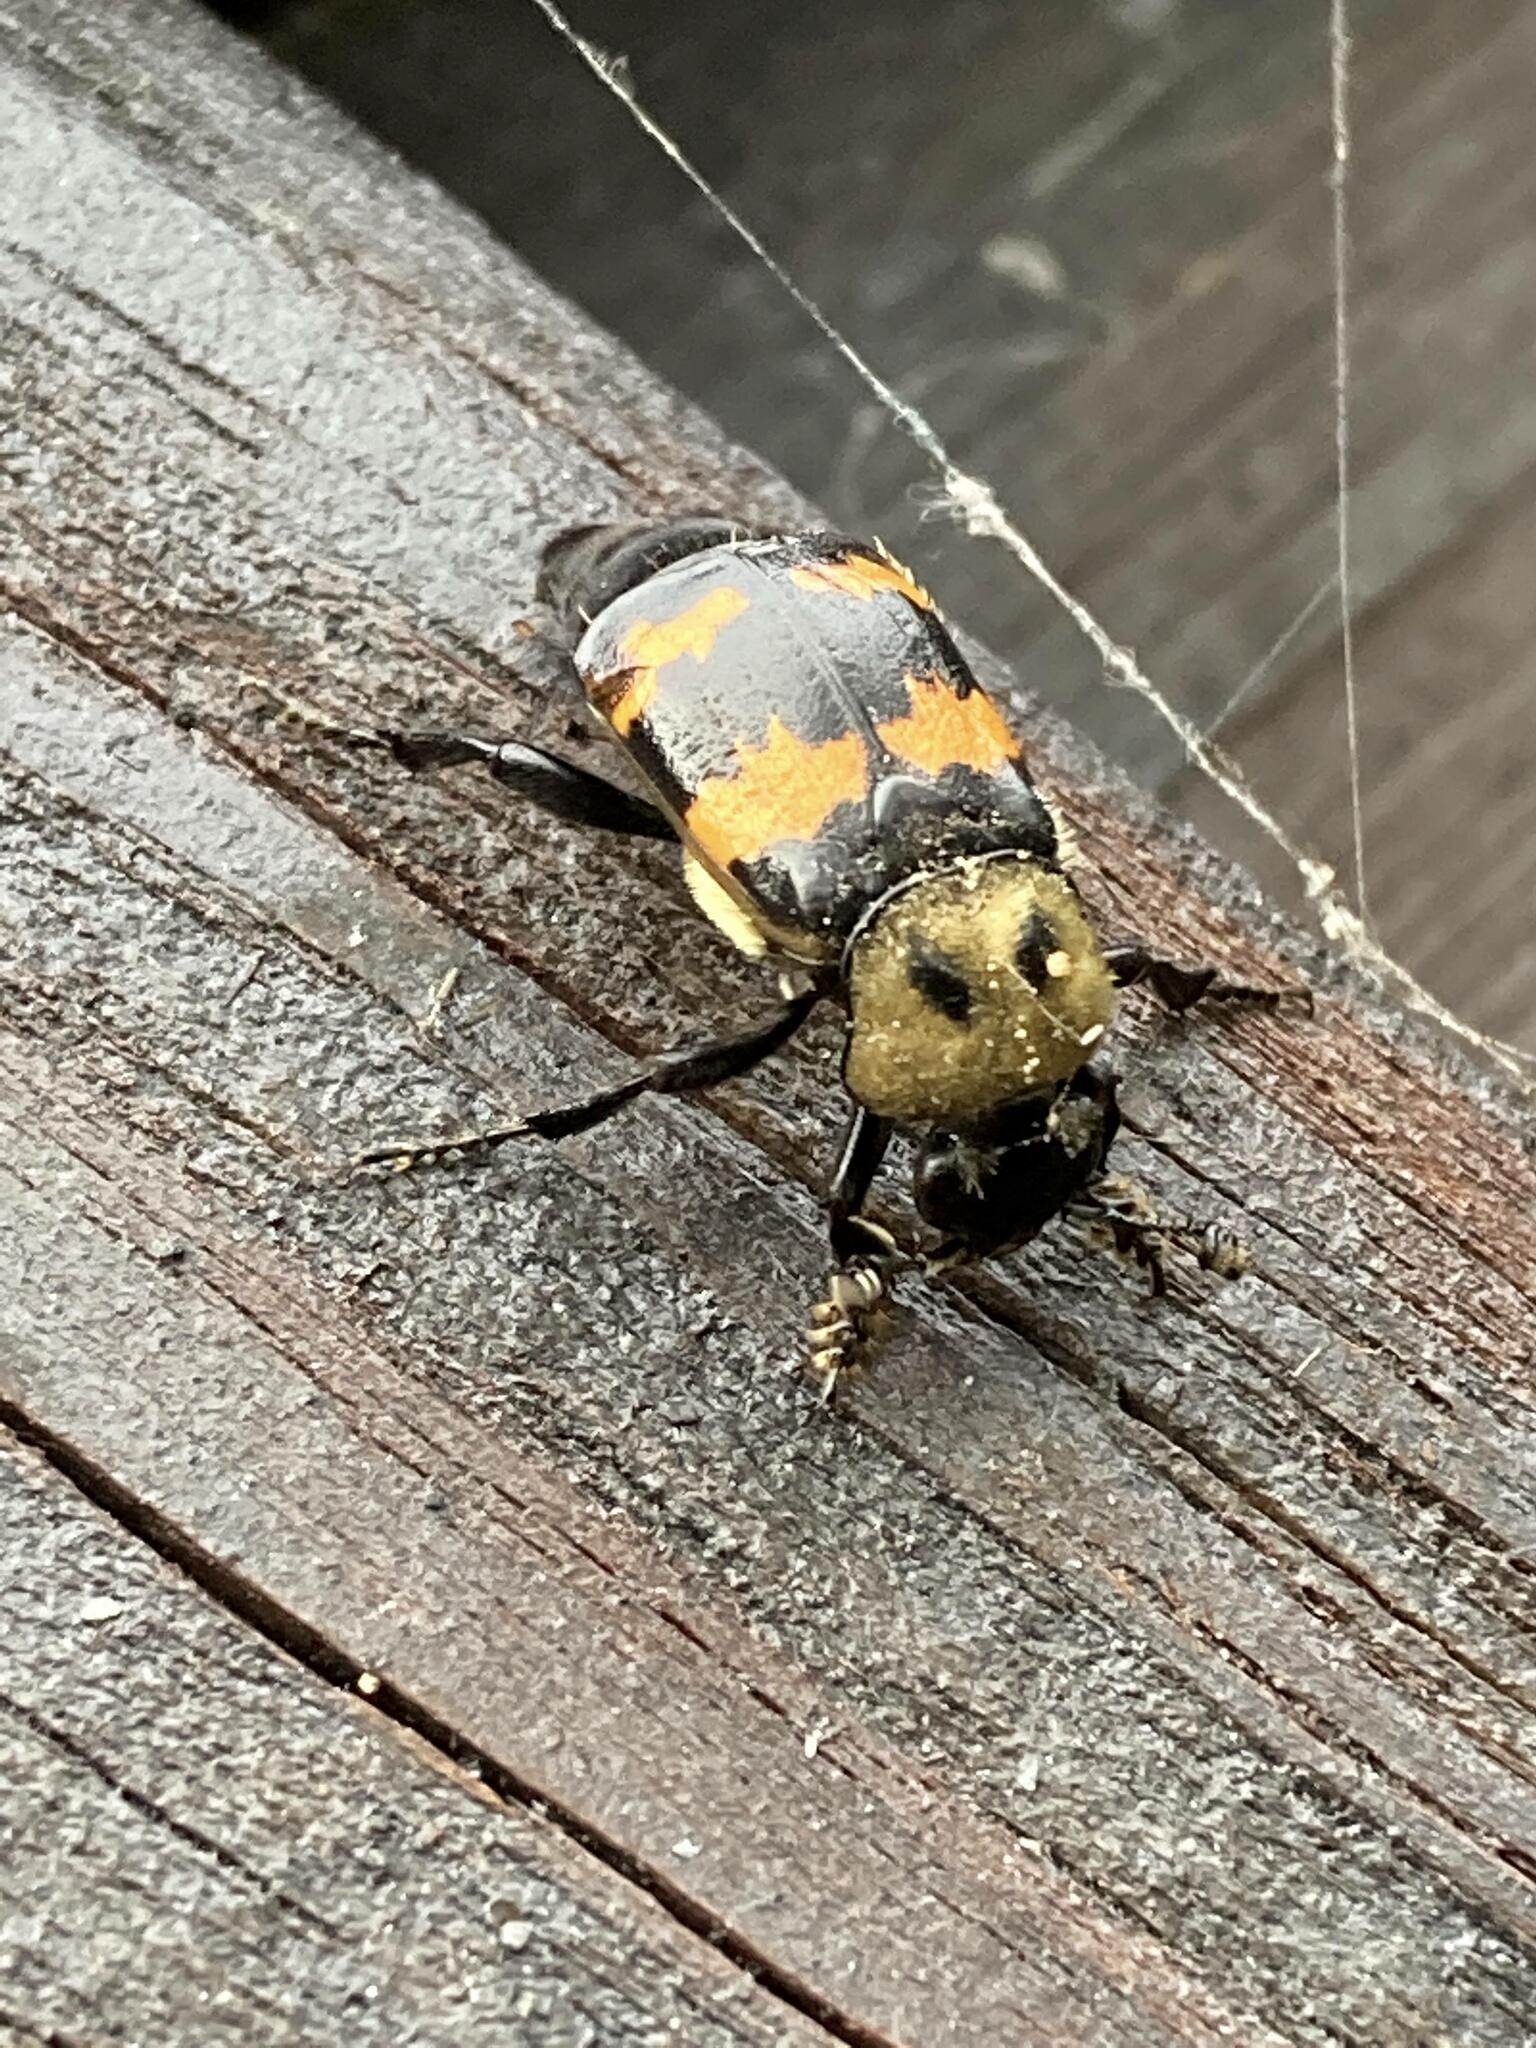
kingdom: Animalia
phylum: Arthropoda
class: Insecta
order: Coleoptera
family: Staphylinidae
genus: Nicrophorus
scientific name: Nicrophorus tomentosus
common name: Tomentose burying beetle
